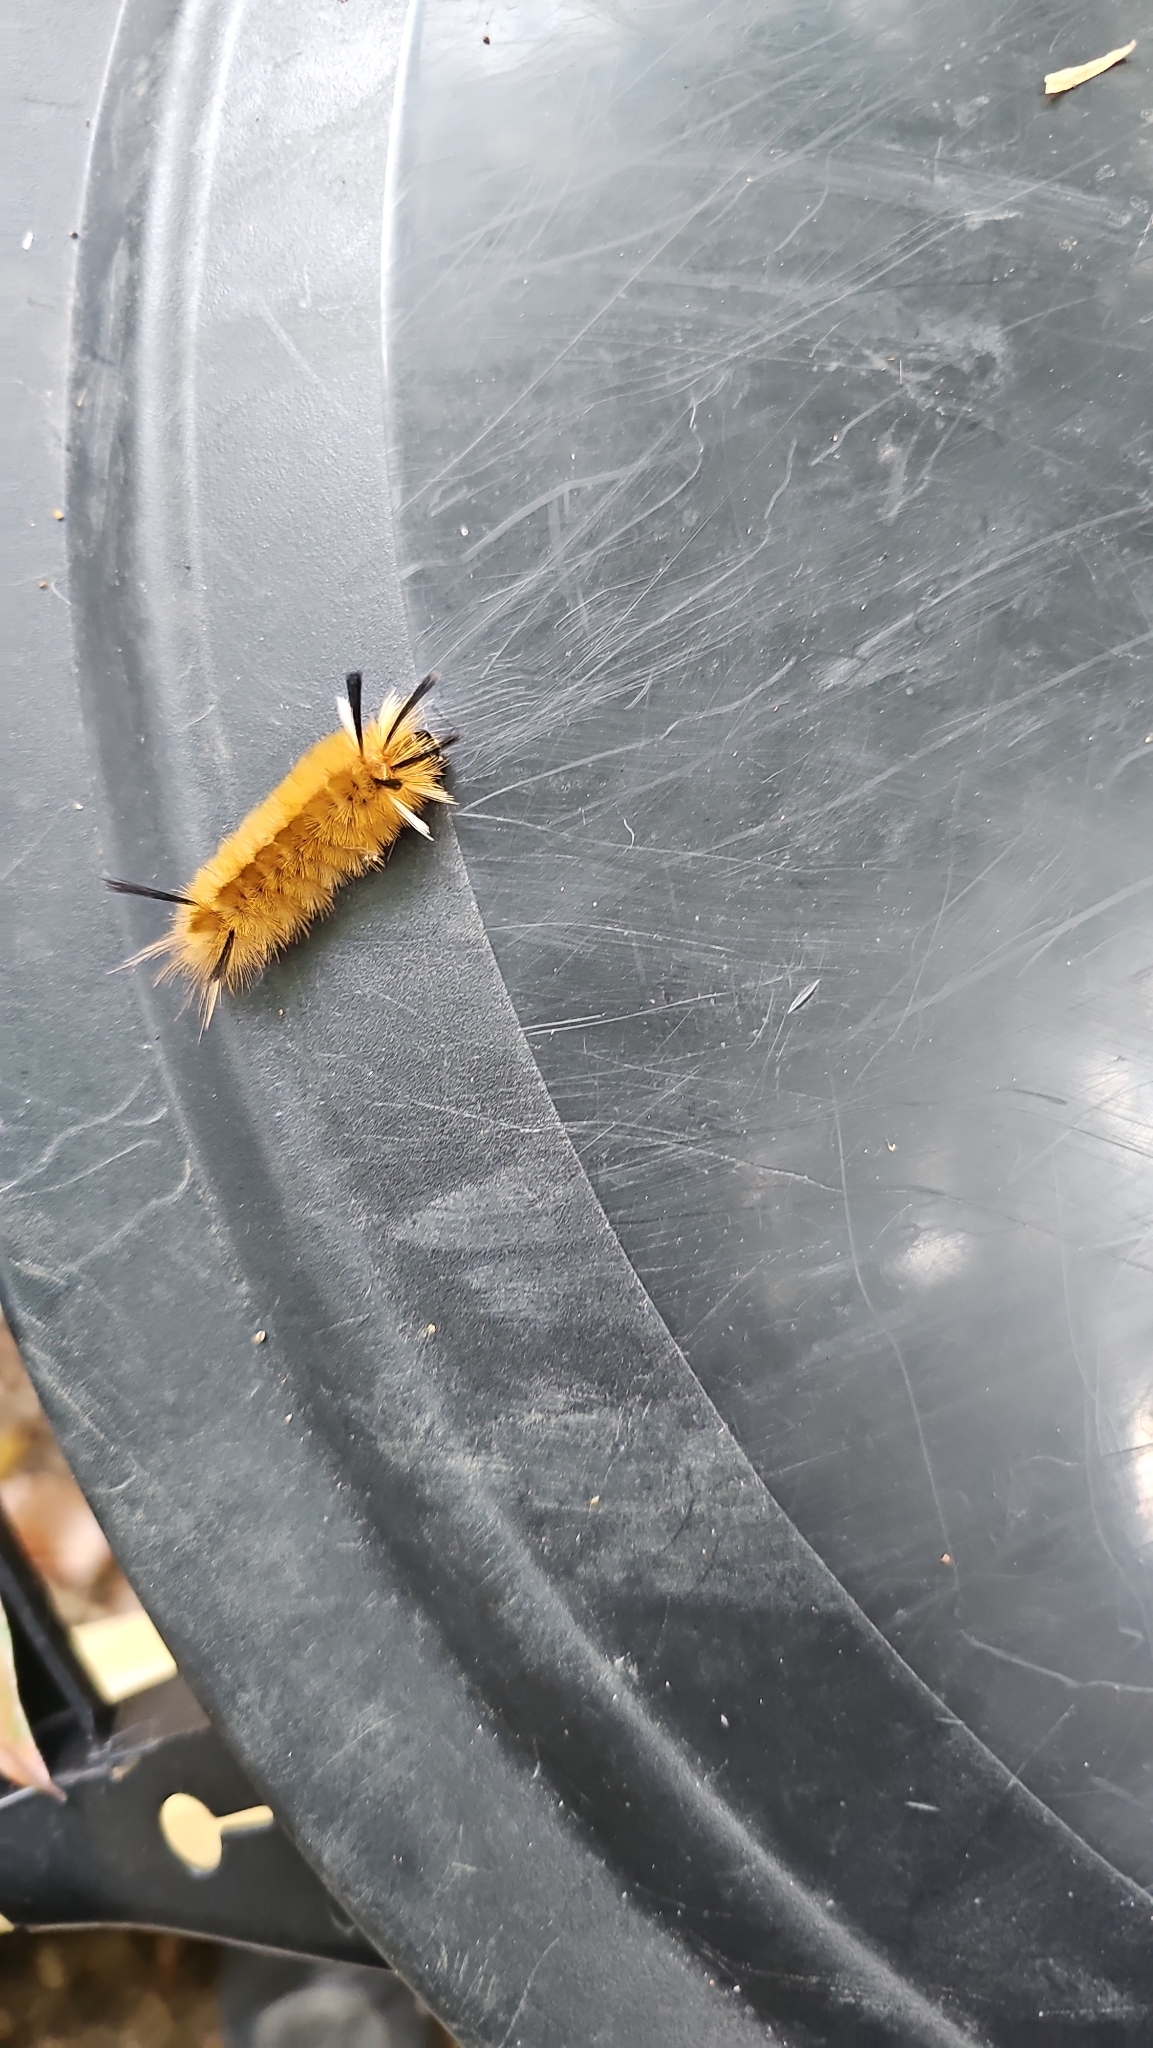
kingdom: Animalia
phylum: Arthropoda
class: Insecta
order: Lepidoptera
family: Erebidae
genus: Halysidota
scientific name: Halysidota tessellaris
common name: Banded tussock moth
